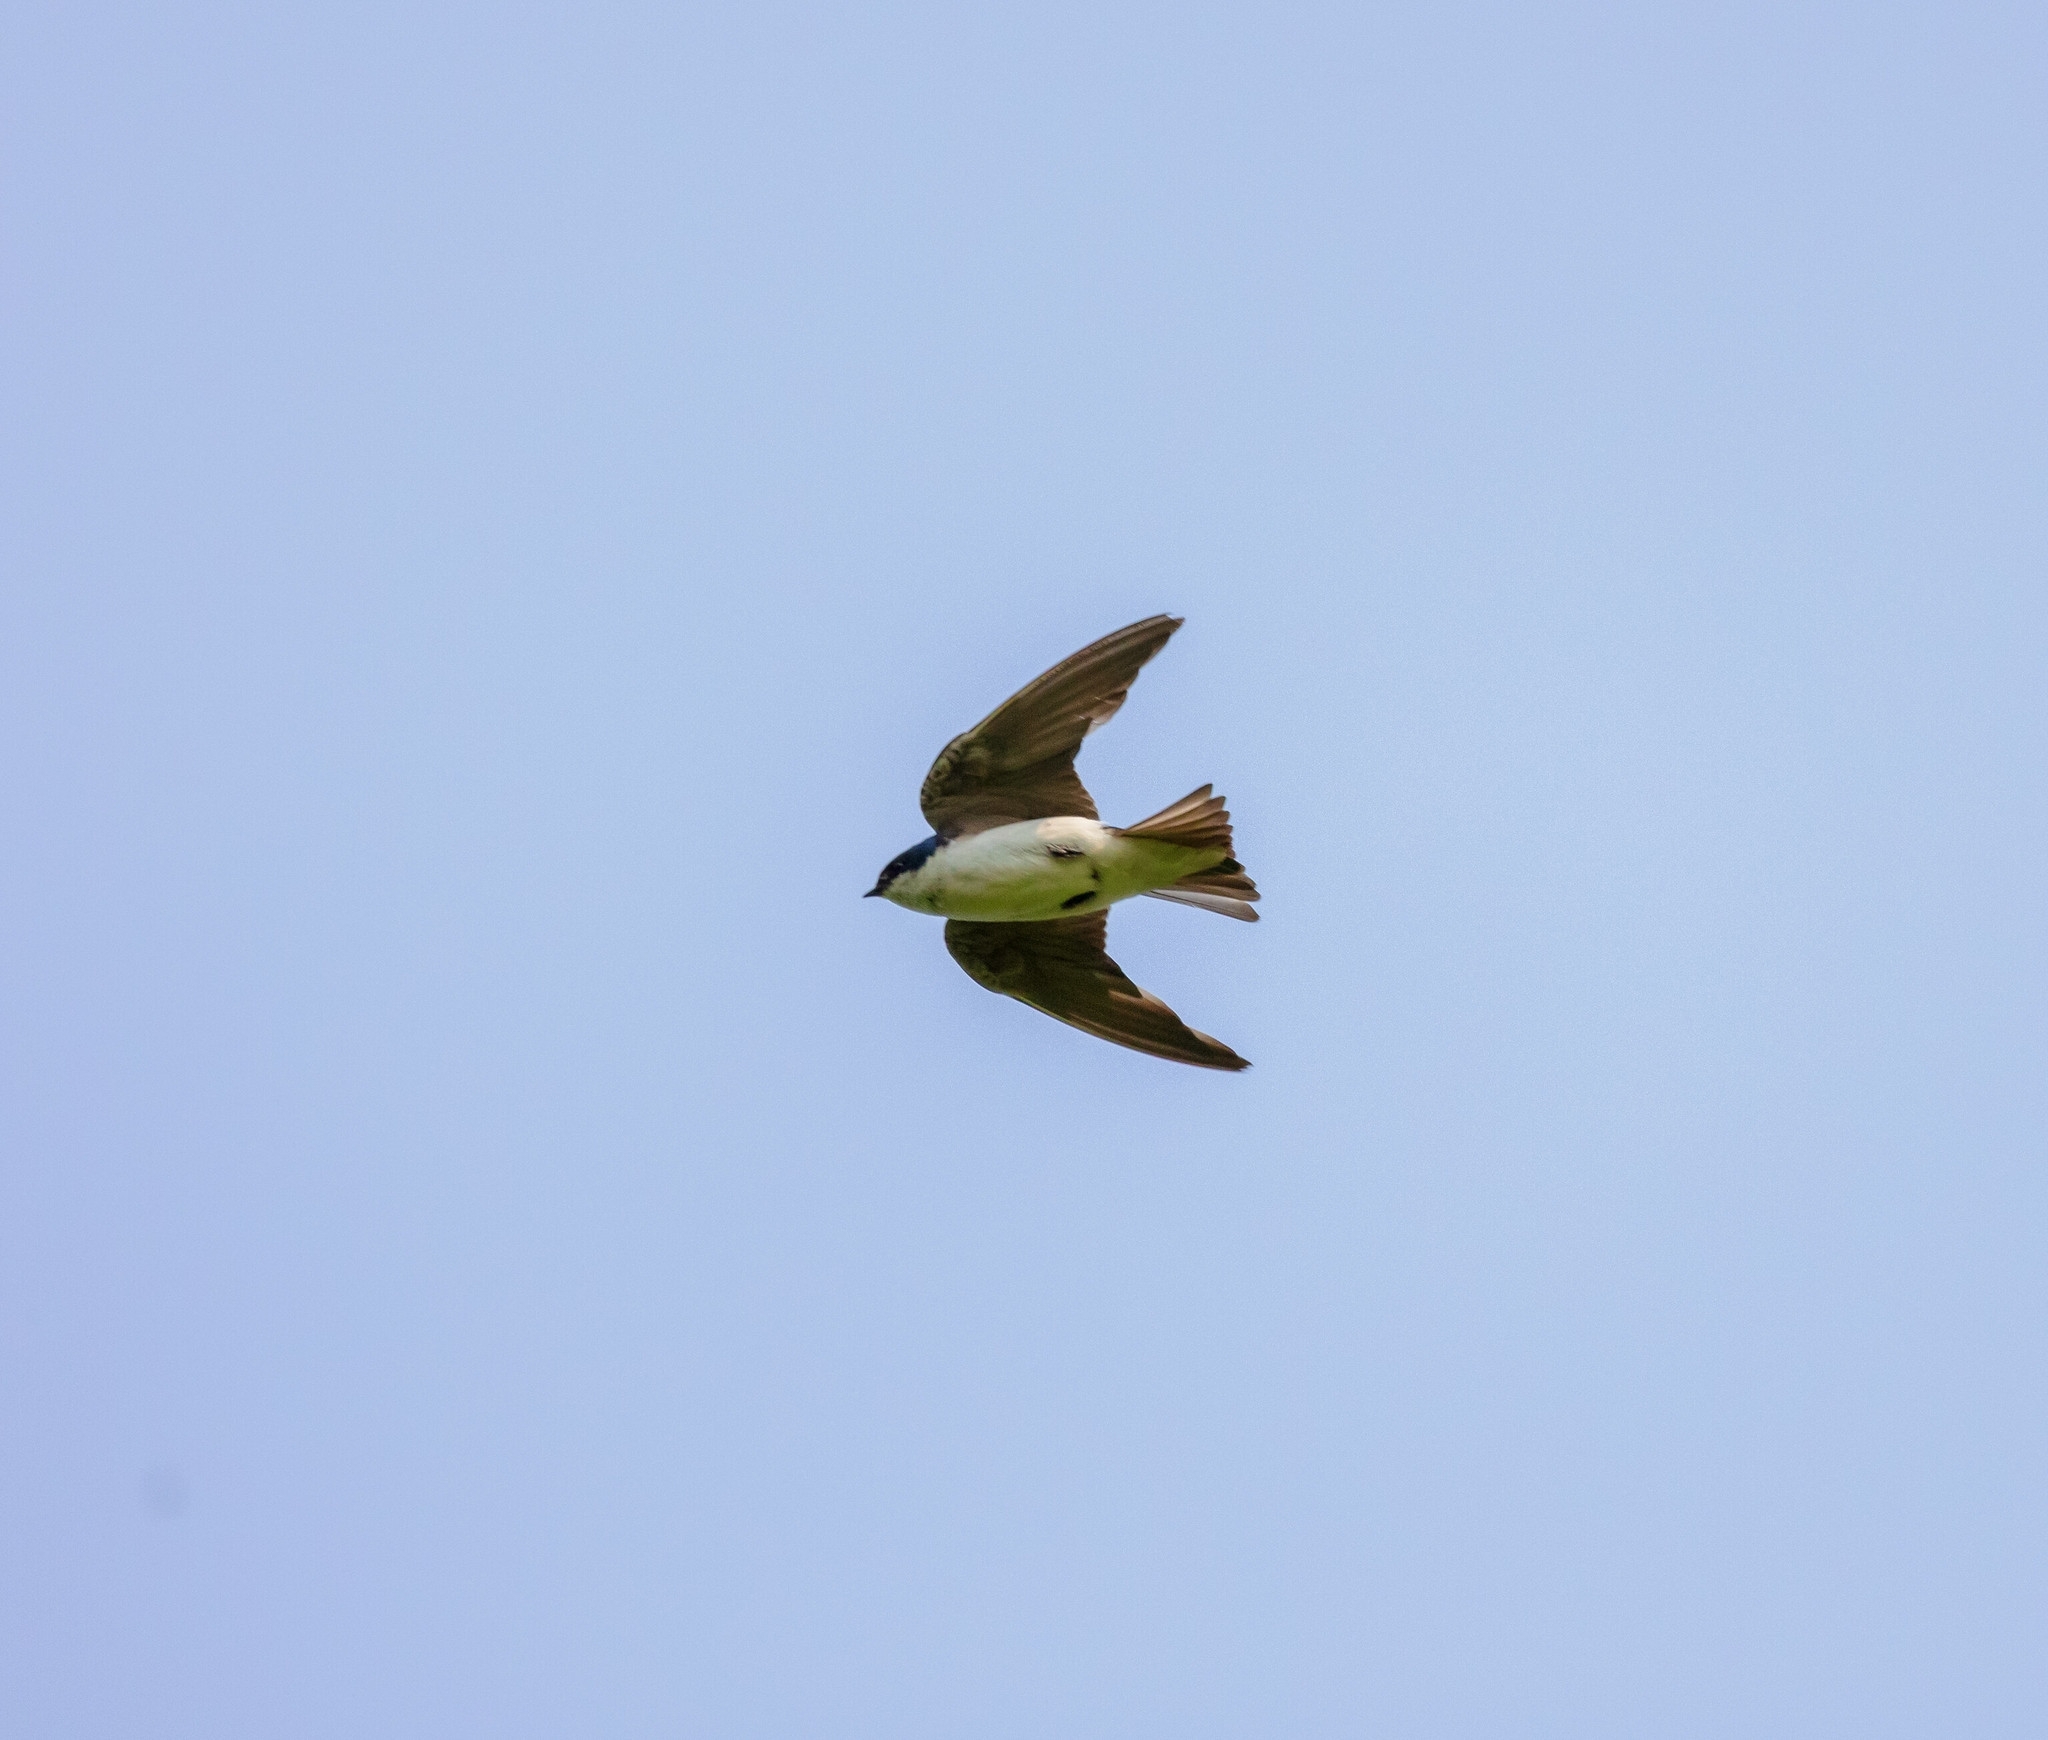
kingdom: Animalia
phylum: Chordata
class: Aves
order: Passeriformes
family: Hirundinidae
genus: Tachycineta
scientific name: Tachycineta bicolor
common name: Tree swallow
